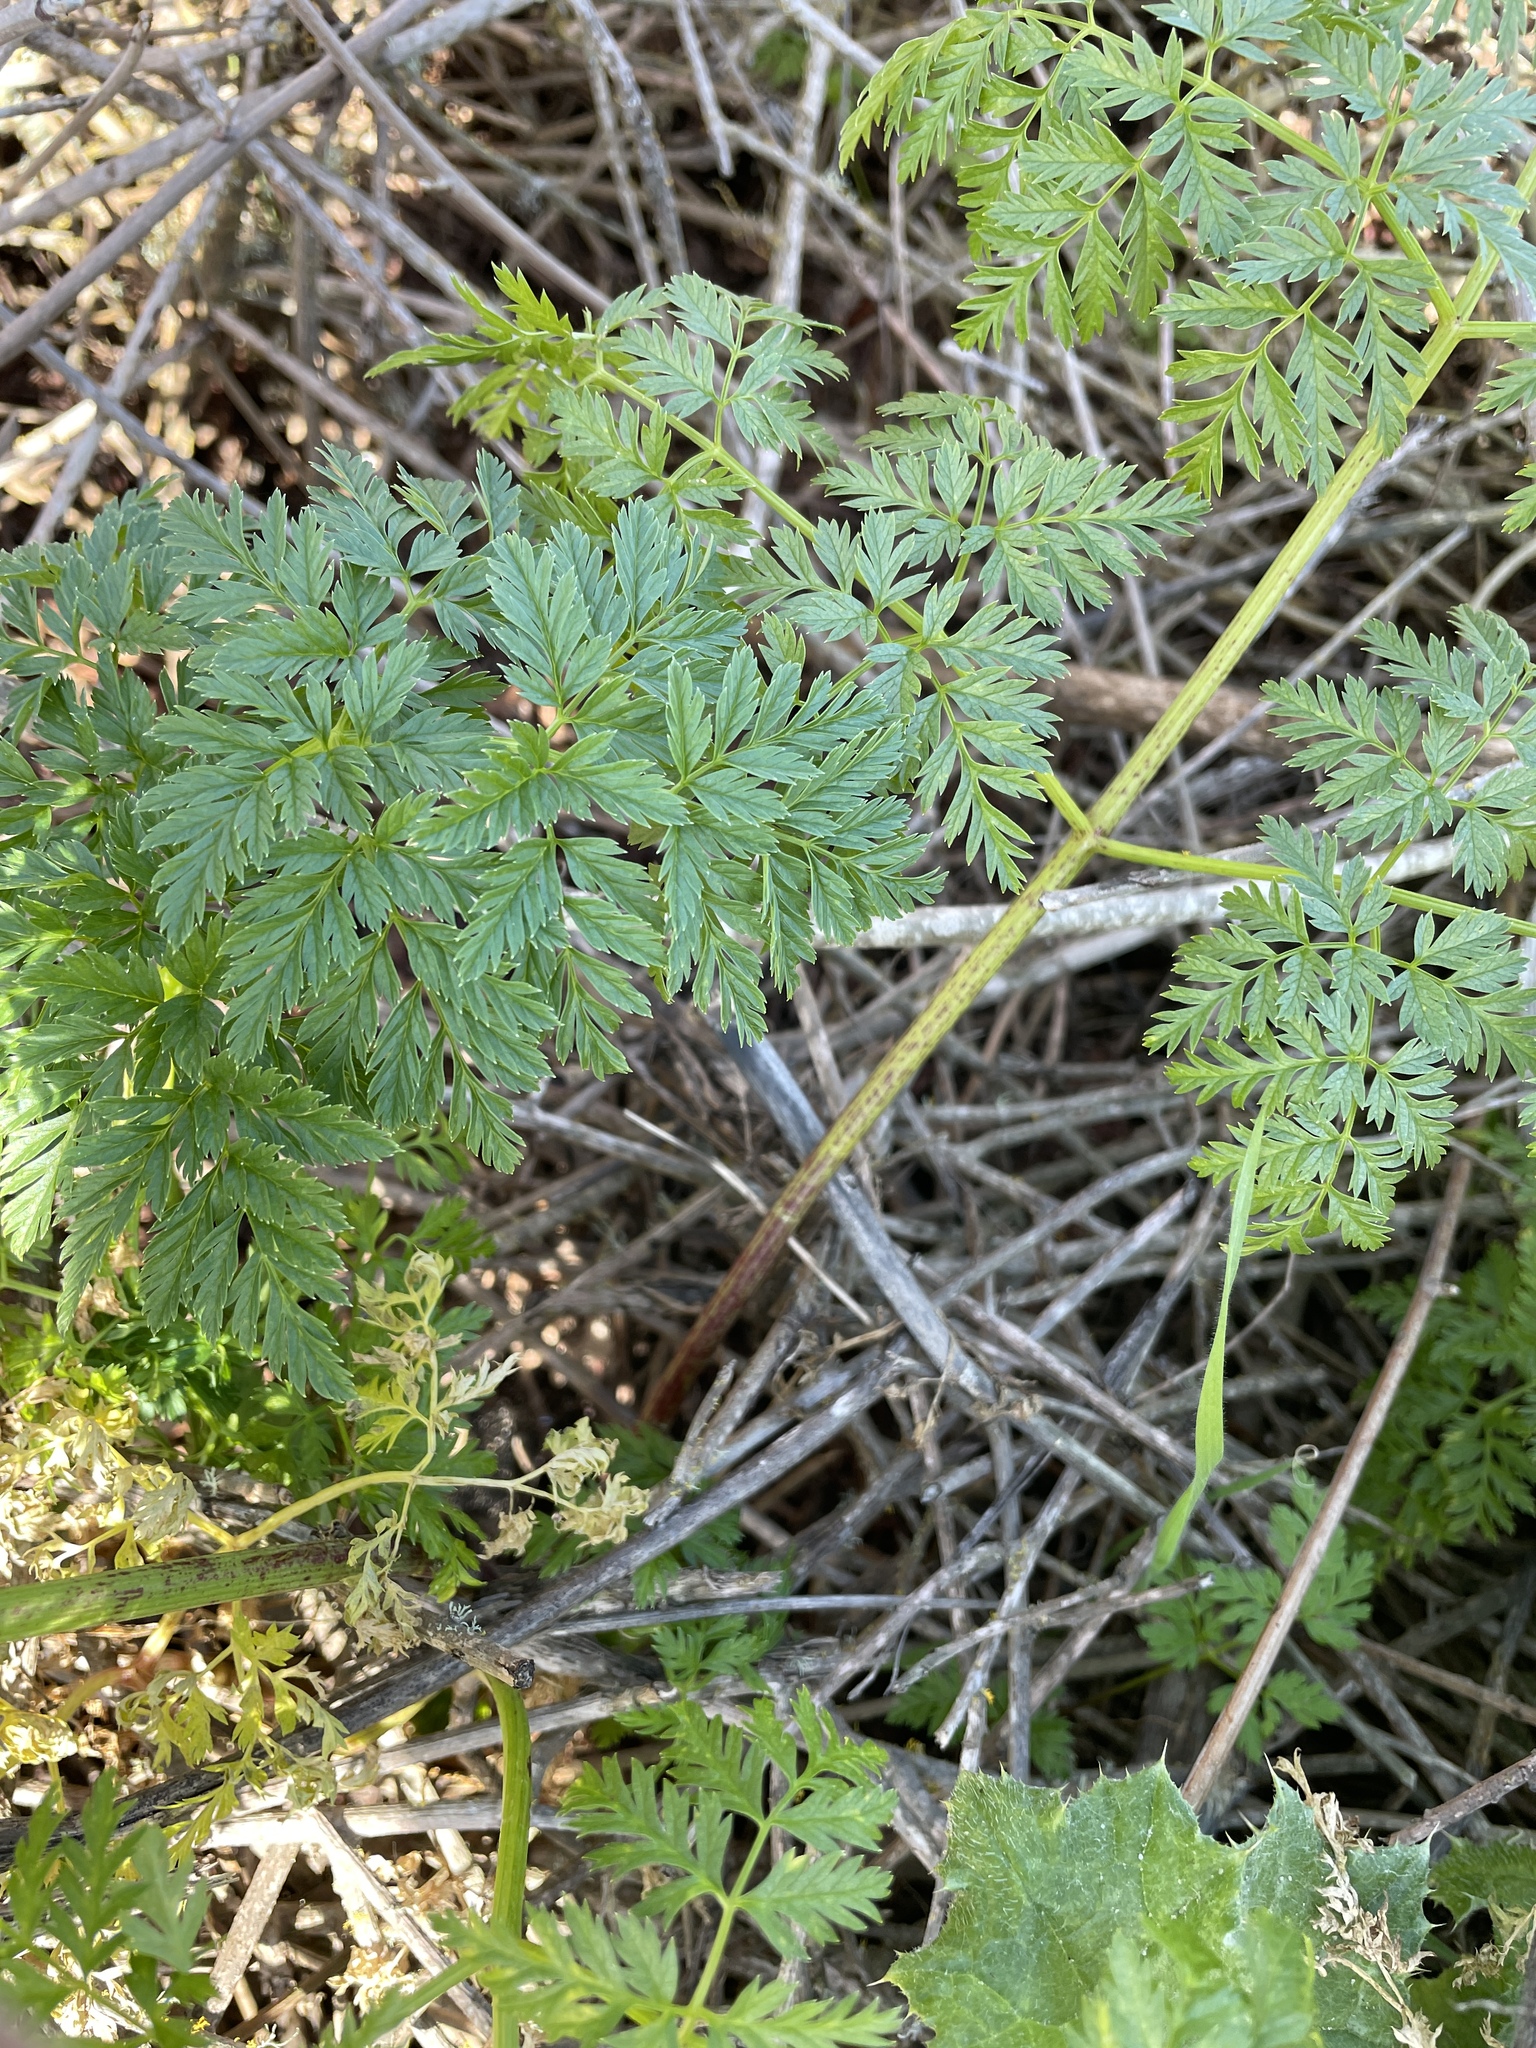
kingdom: Plantae
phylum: Tracheophyta
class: Magnoliopsida
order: Apiales
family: Apiaceae
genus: Conium
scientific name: Conium maculatum
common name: Hemlock
